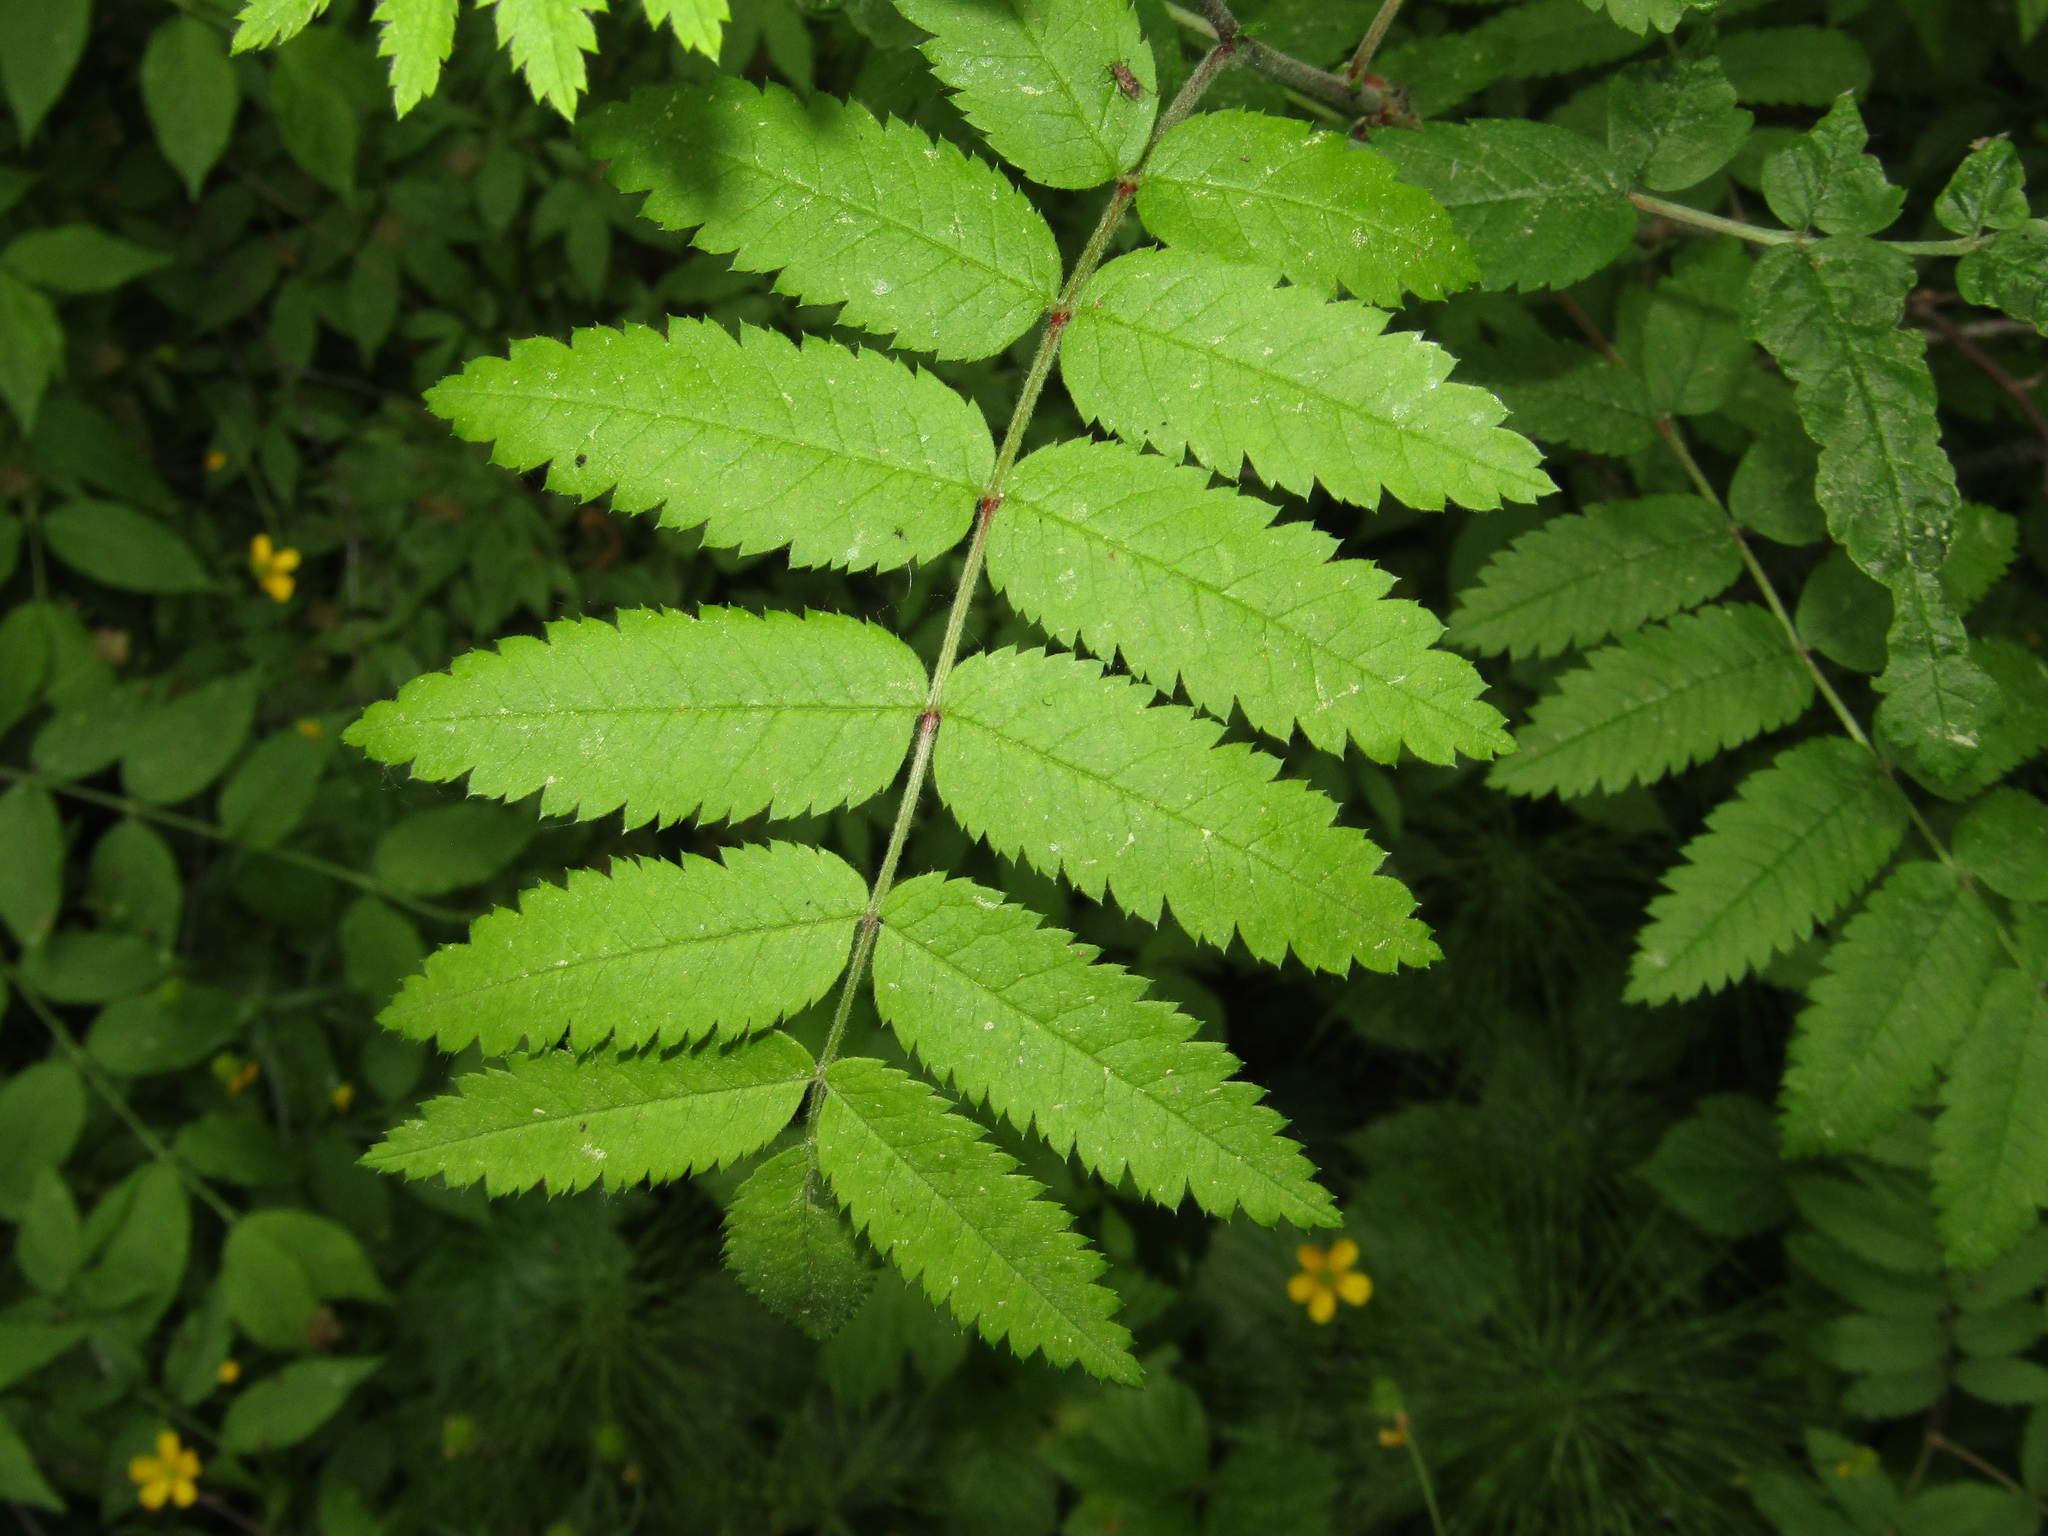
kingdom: Plantae
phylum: Tracheophyta
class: Magnoliopsida
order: Rosales
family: Rosaceae
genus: Sorbus
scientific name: Sorbus aucuparia
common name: Rowan
